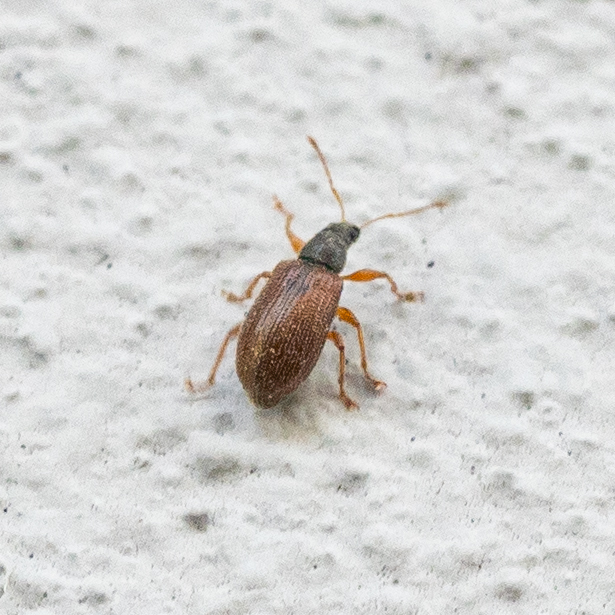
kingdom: Animalia
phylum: Arthropoda
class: Insecta
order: Coleoptera
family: Curculionidae
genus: Phyllobius
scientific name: Phyllobius oblongus
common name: Brown leaf weevil
